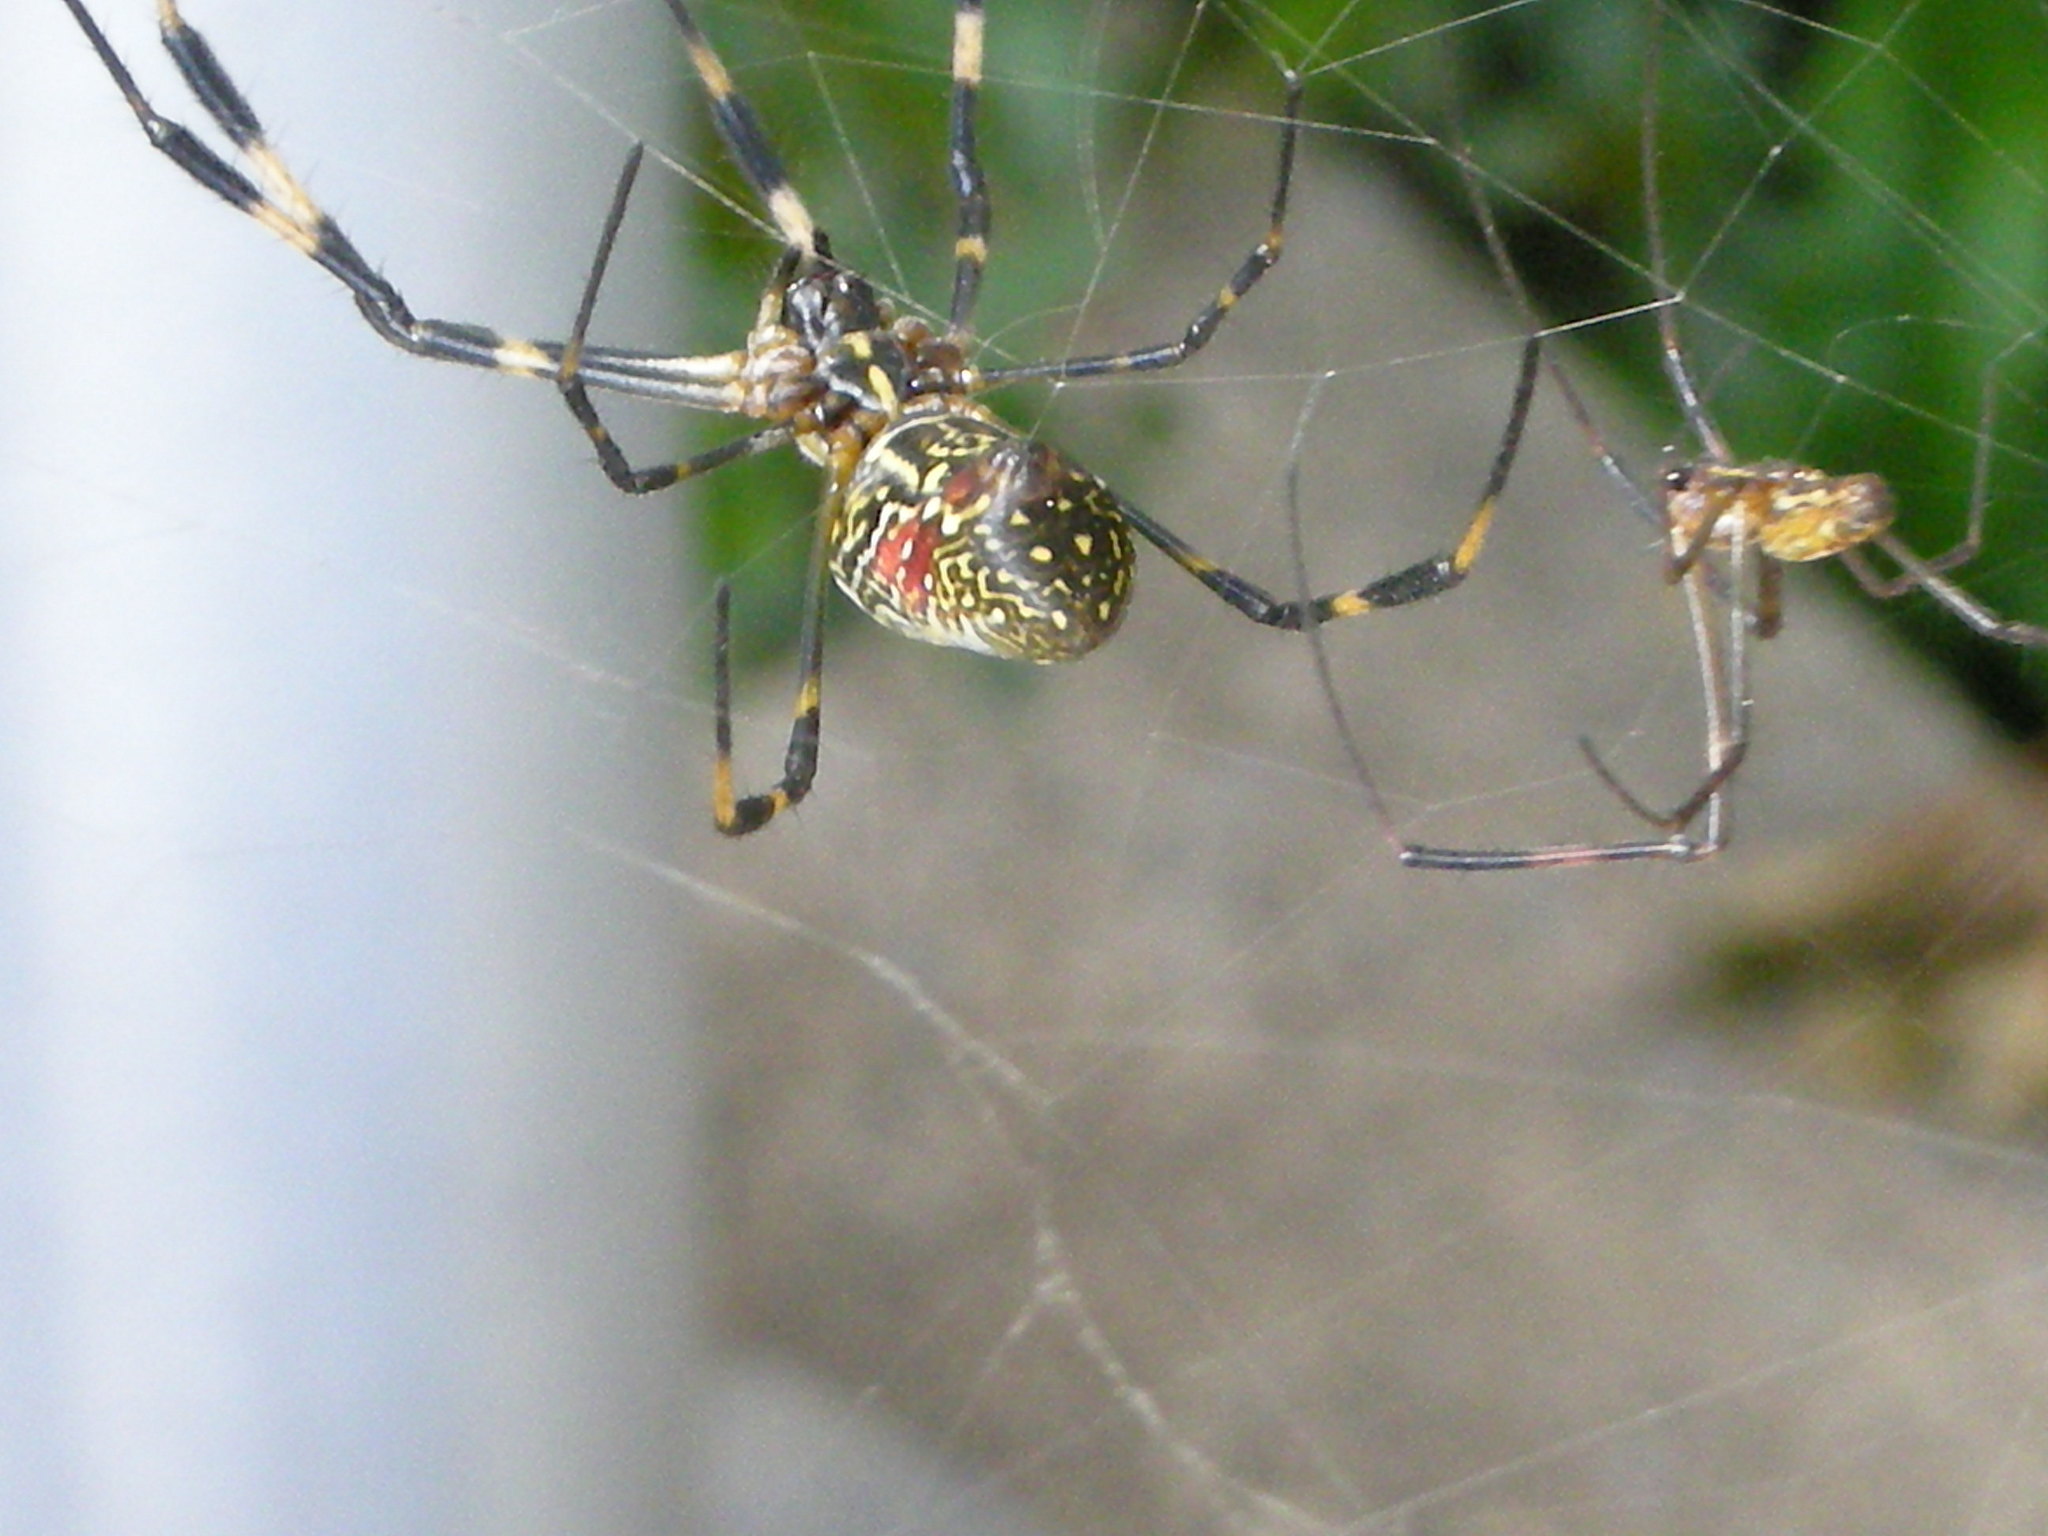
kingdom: Animalia
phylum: Arthropoda
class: Arachnida
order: Araneae
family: Araneidae
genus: Trichonephila
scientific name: Trichonephila clavata
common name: Jorō spider
